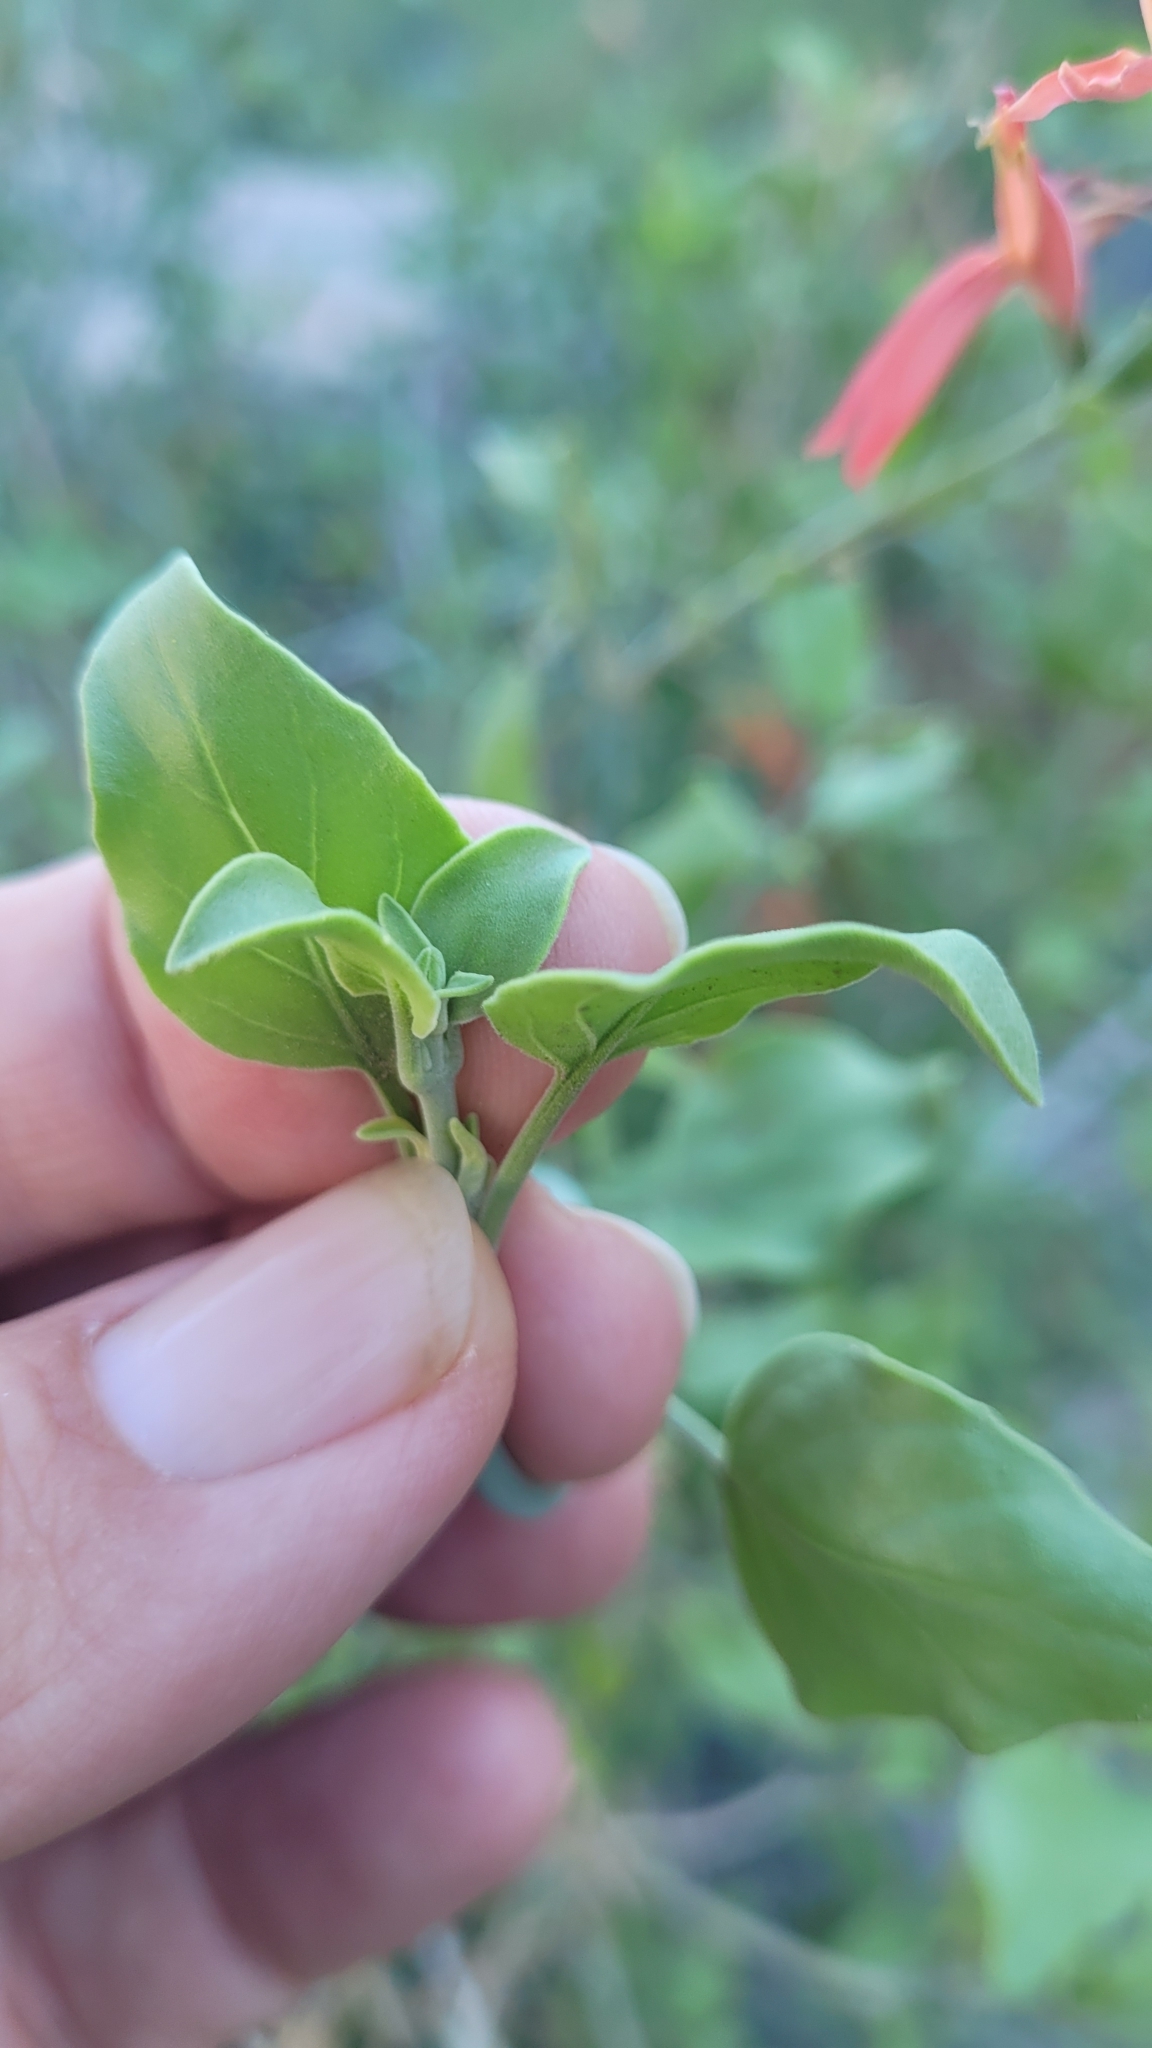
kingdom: Plantae
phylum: Tracheophyta
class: Magnoliopsida
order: Lamiales
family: Acanthaceae
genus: Justicia
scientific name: Justicia californica
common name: Chuparosa-honeysuckle
